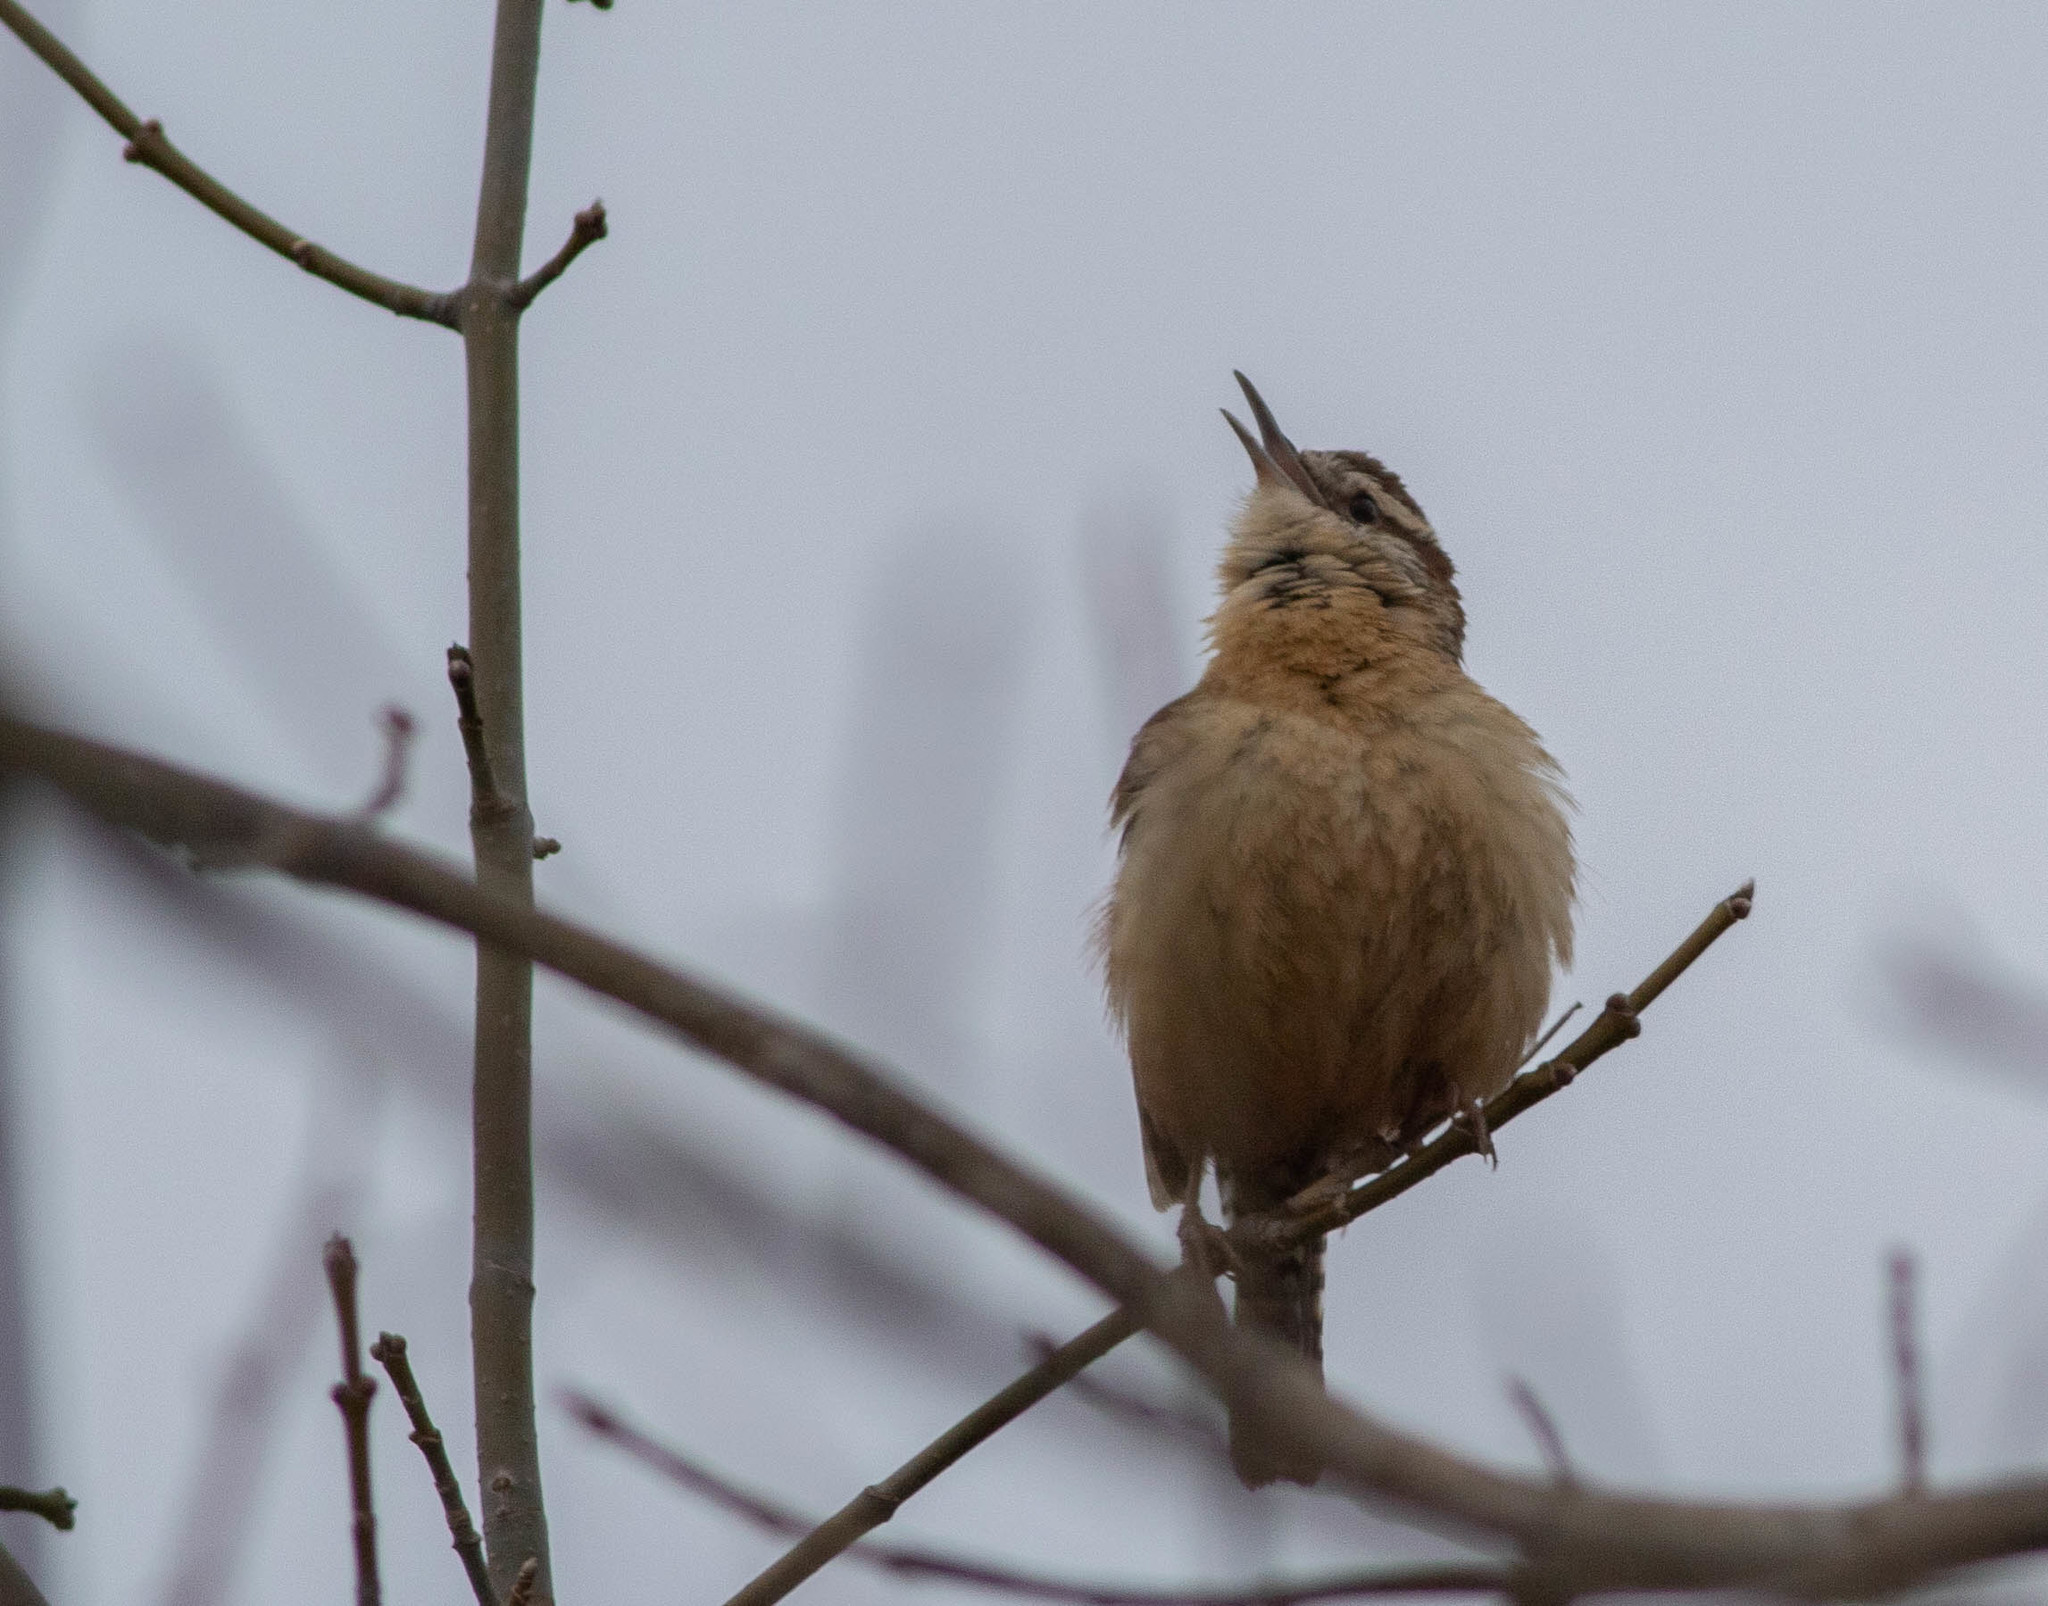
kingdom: Animalia
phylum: Chordata
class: Aves
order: Passeriformes
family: Troglodytidae
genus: Thryothorus
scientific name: Thryothorus ludovicianus
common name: Carolina wren
